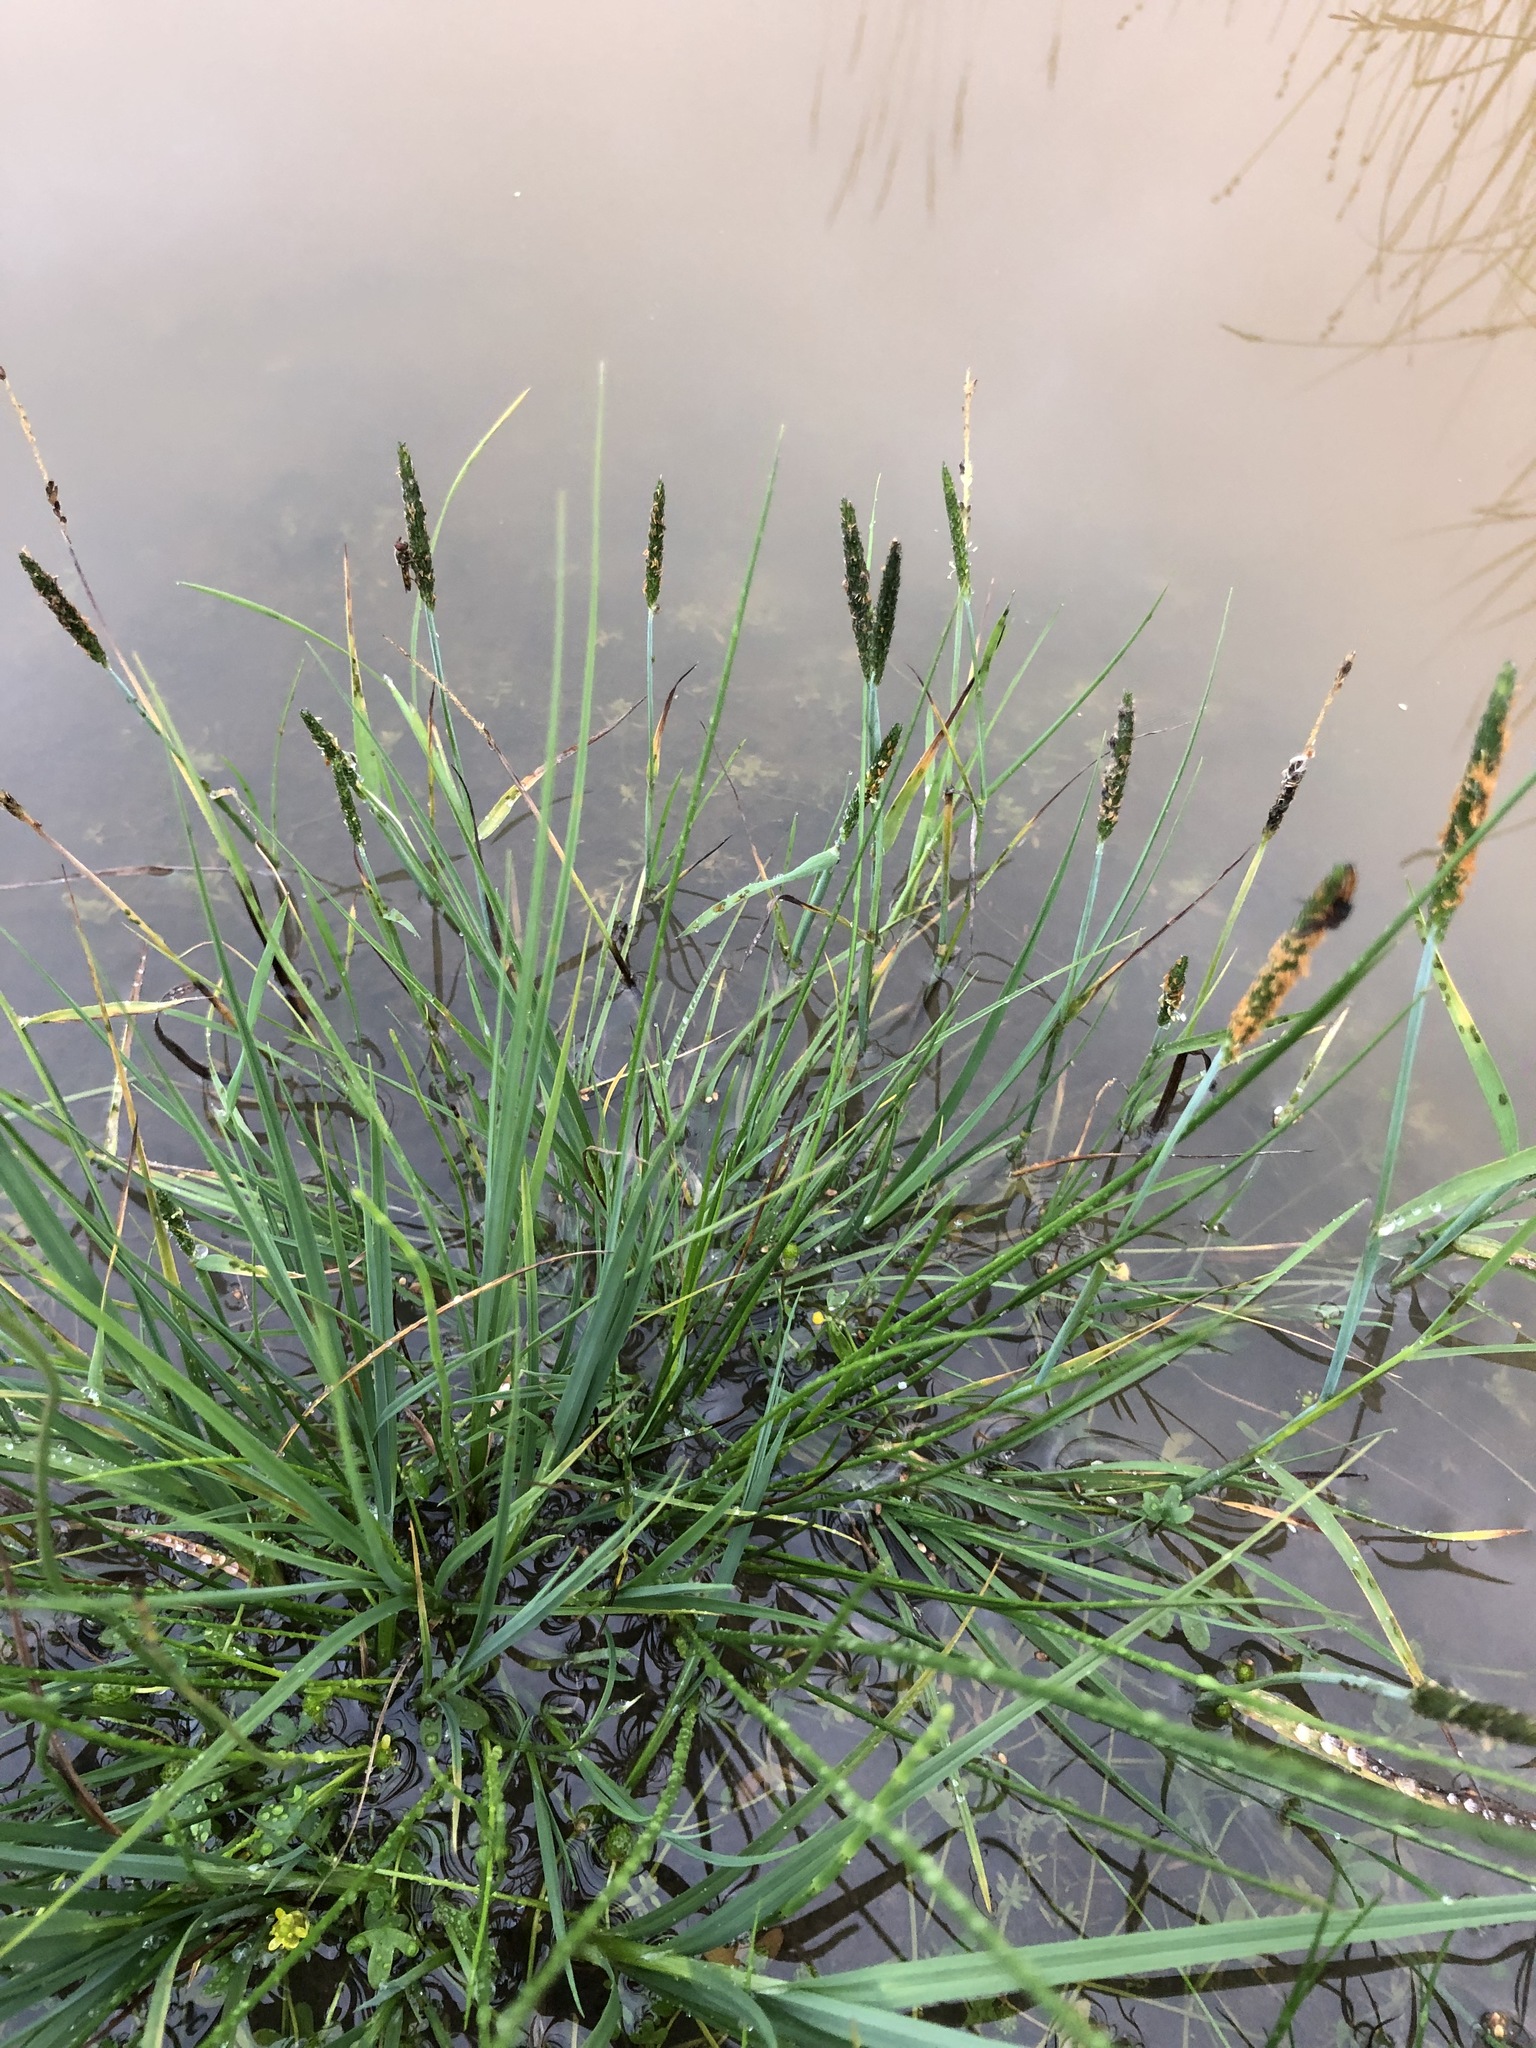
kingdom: Plantae
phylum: Tracheophyta
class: Liliopsida
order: Poales
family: Poaceae
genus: Alopecurus
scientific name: Alopecurus aequalis
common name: Orange foxtail
